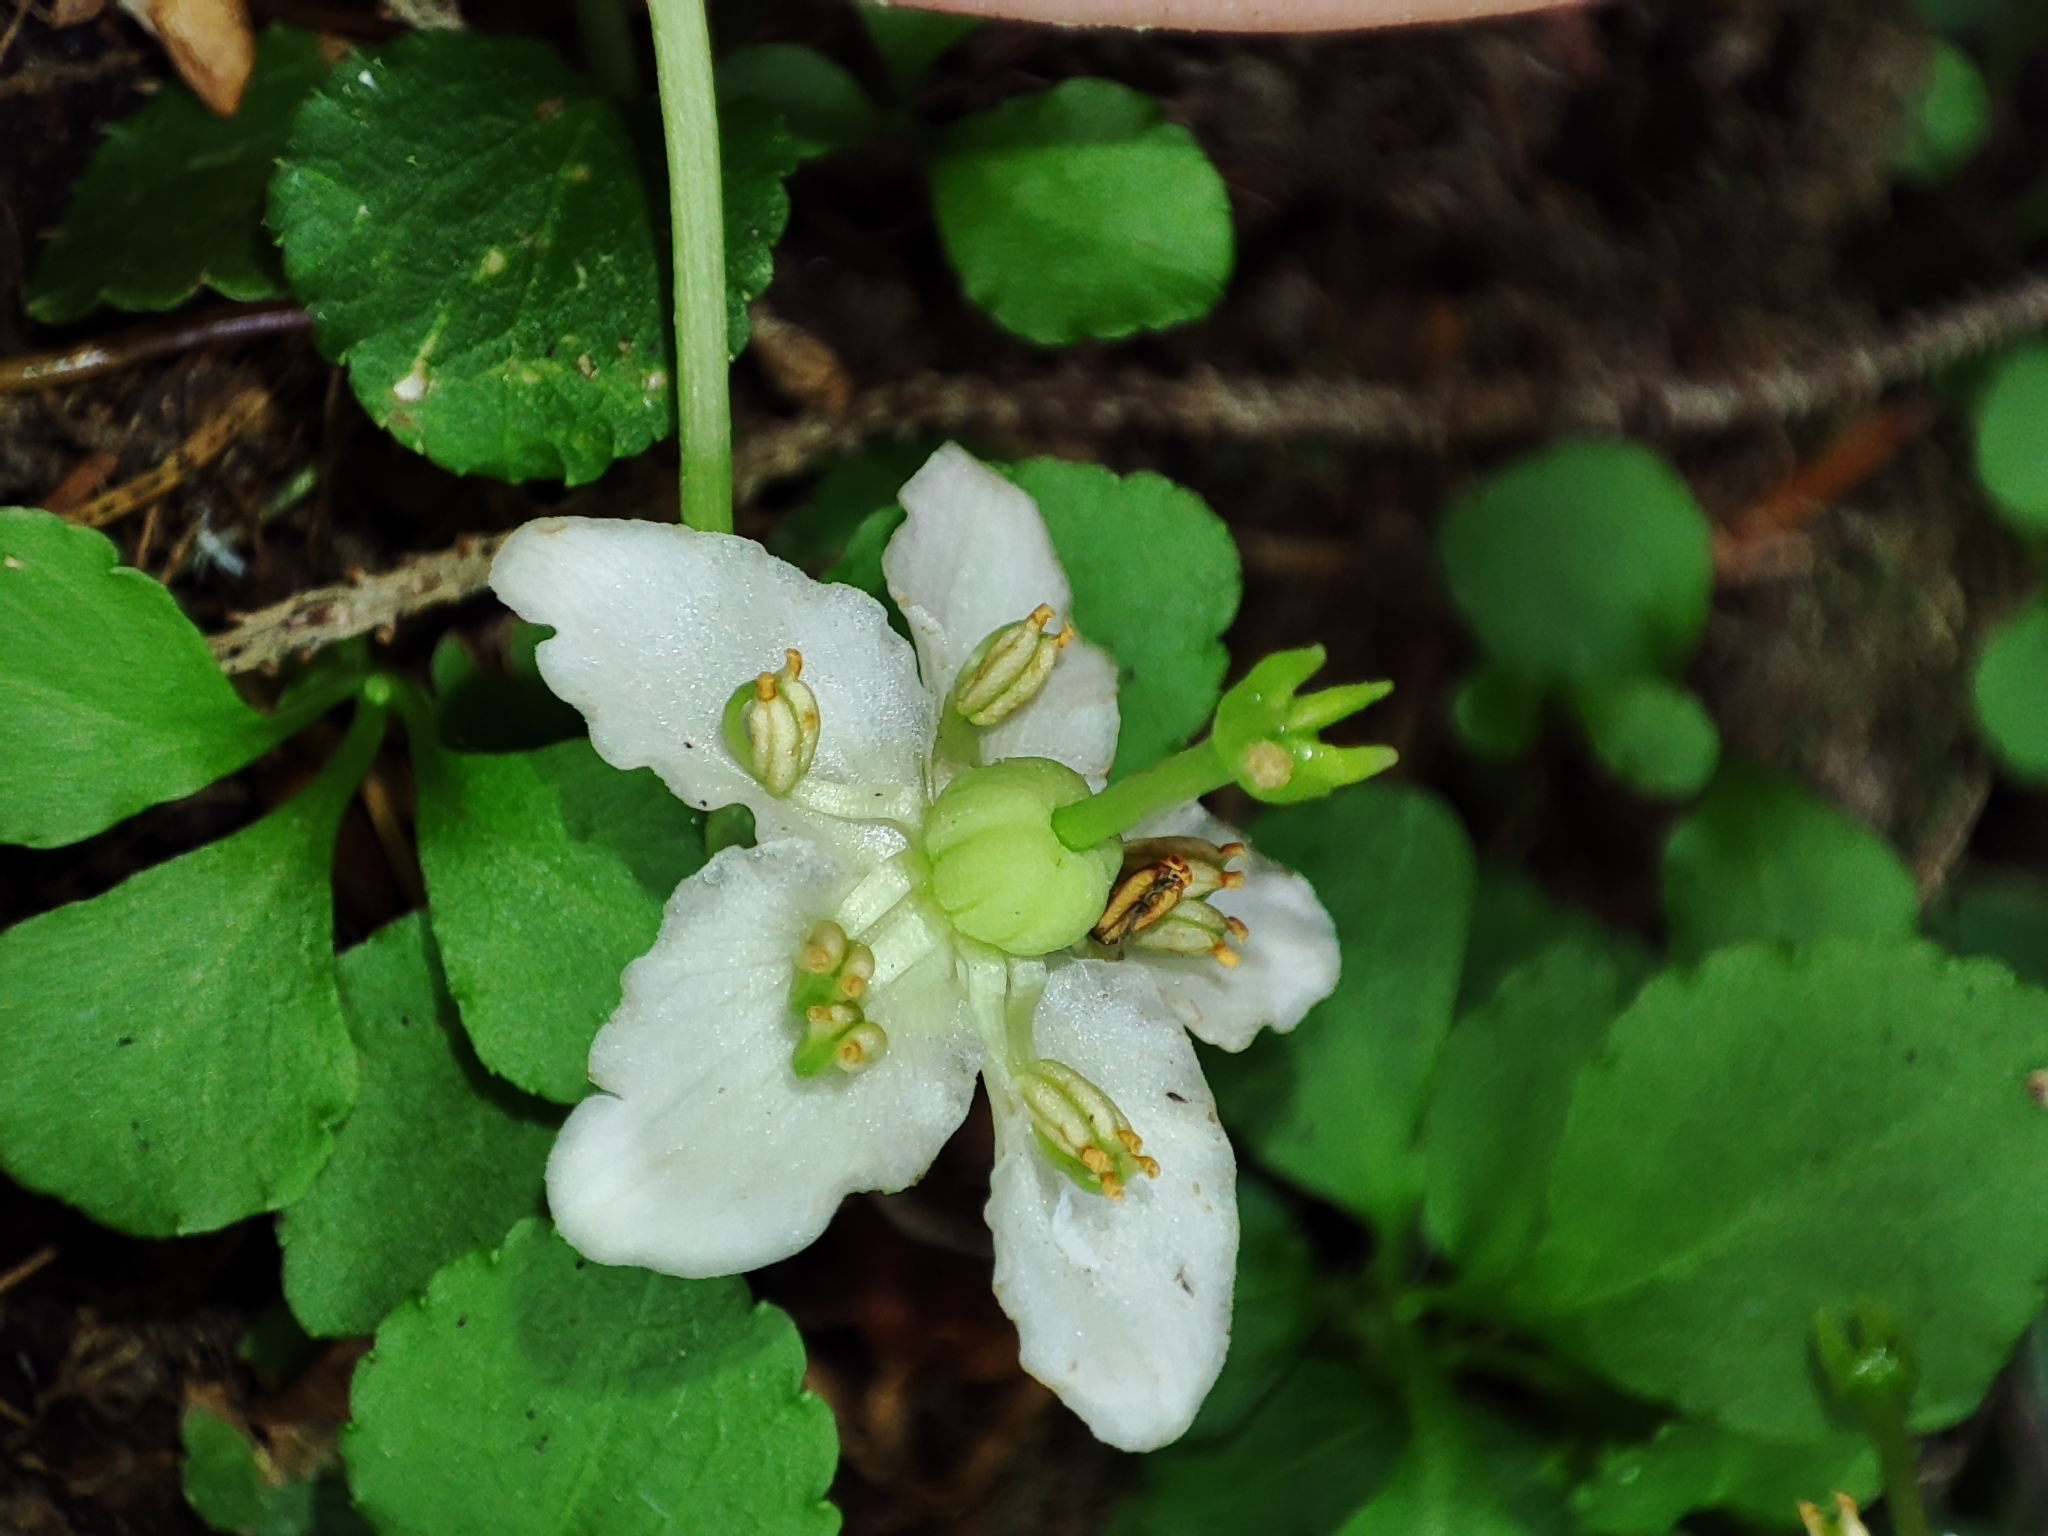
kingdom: Plantae
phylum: Tracheophyta
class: Magnoliopsida
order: Ericales
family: Ericaceae
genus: Moneses
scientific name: Moneses uniflora
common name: One-flowered wintergreen
